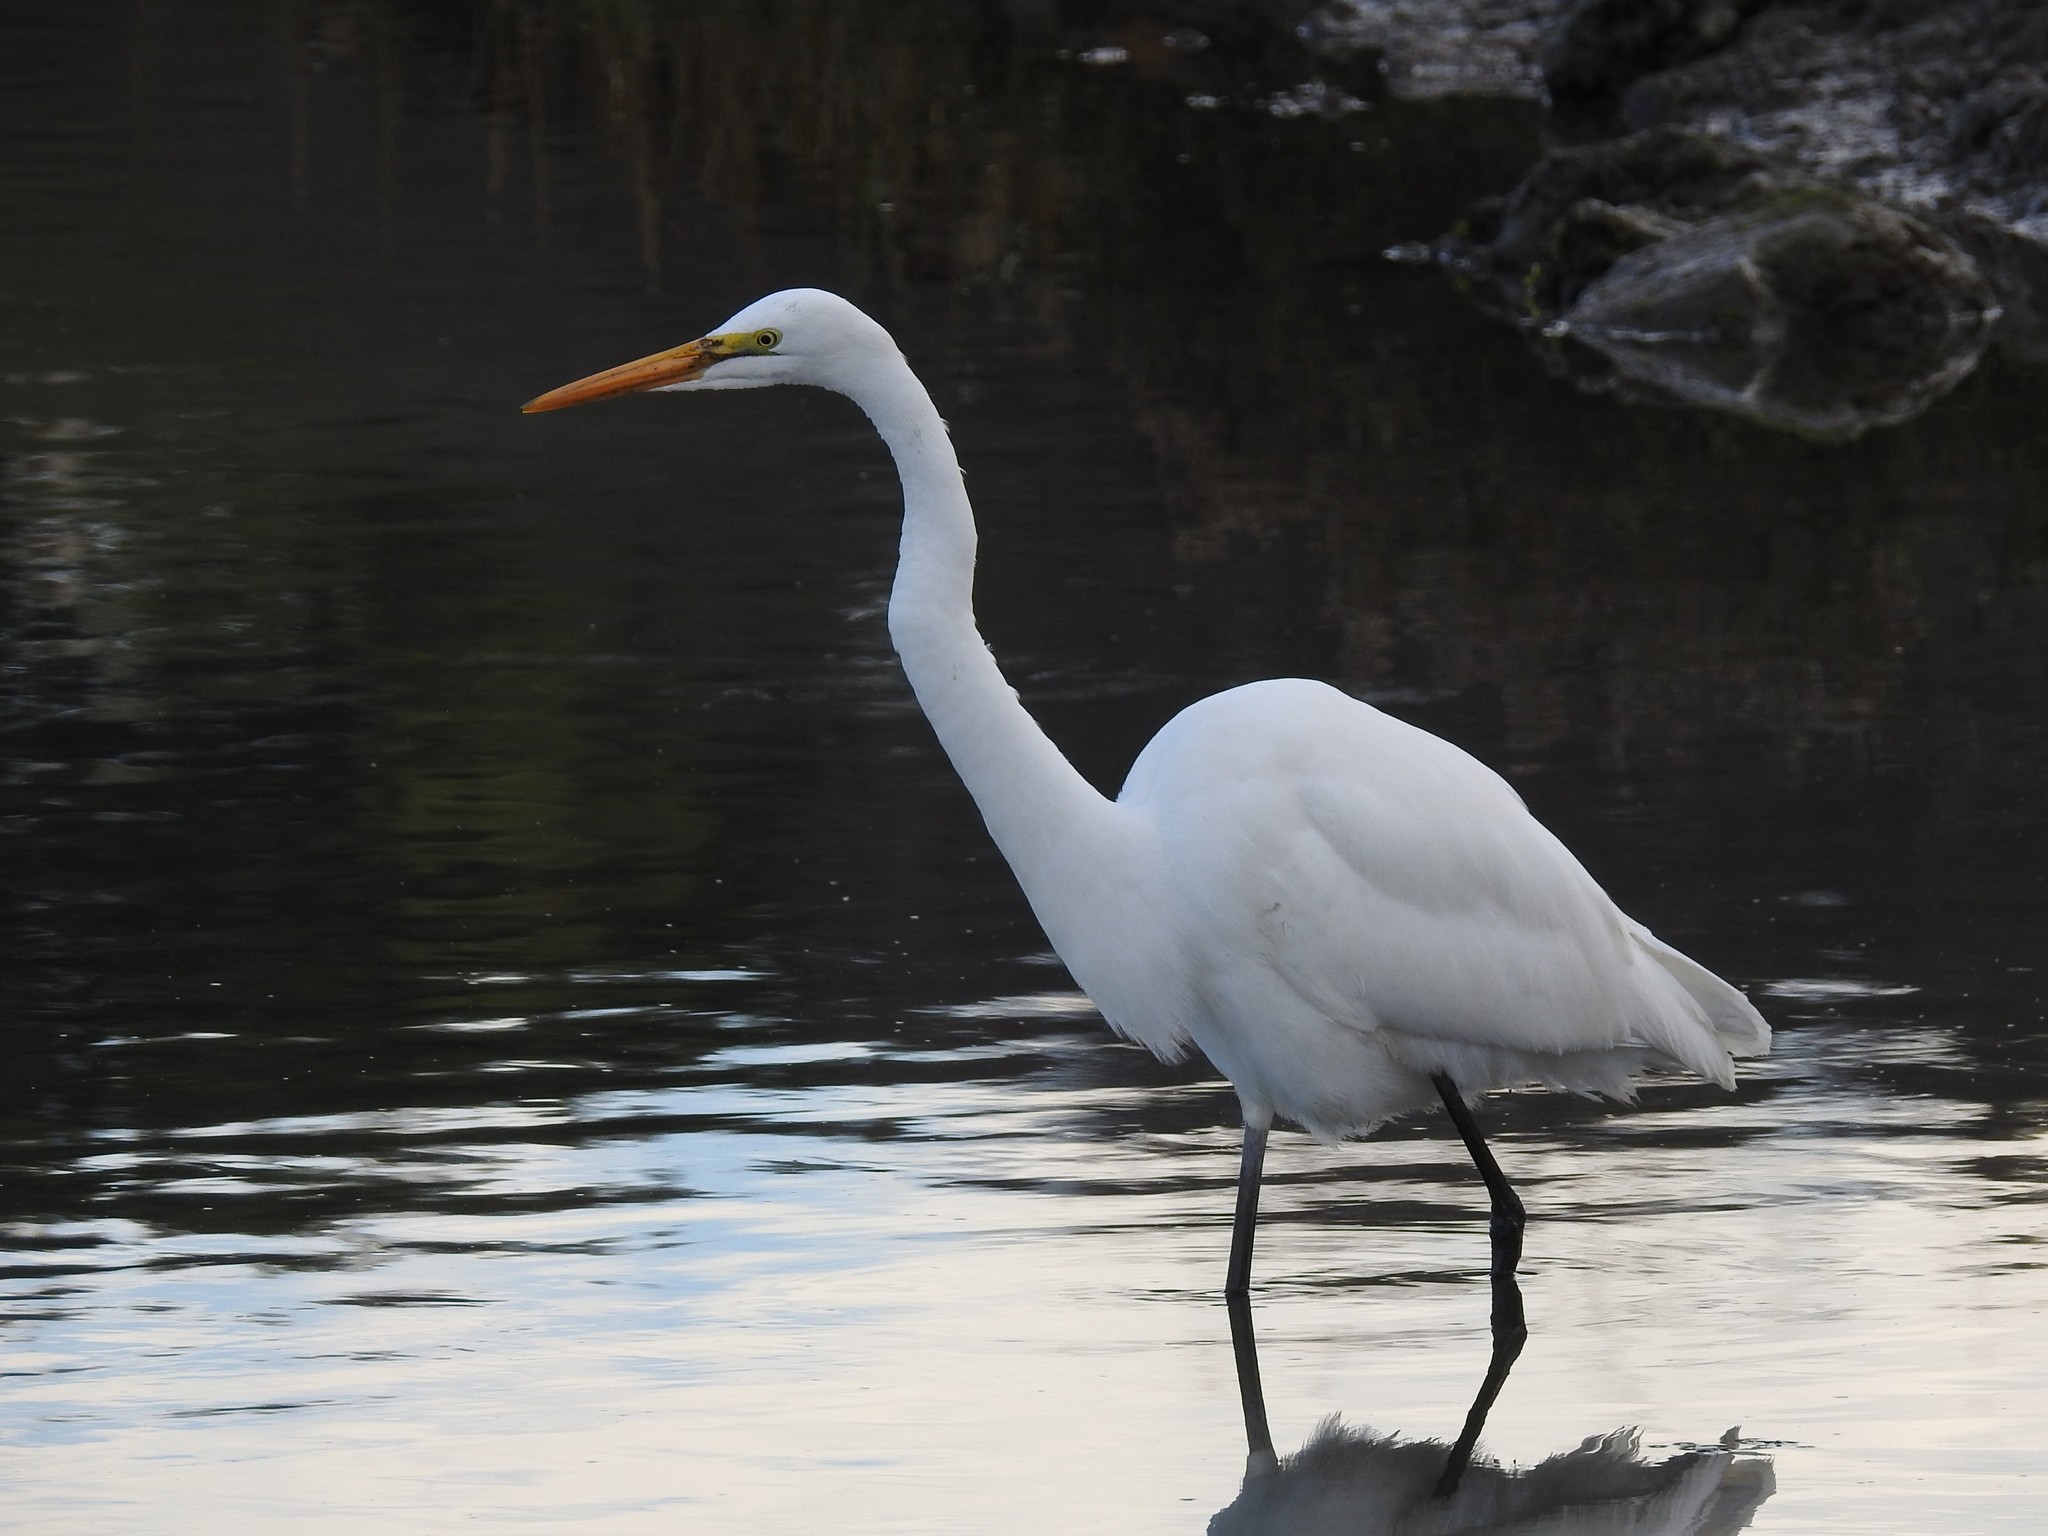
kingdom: Animalia
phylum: Chordata
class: Aves
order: Pelecaniformes
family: Ardeidae
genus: Ardea
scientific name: Ardea alba
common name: Great egret
